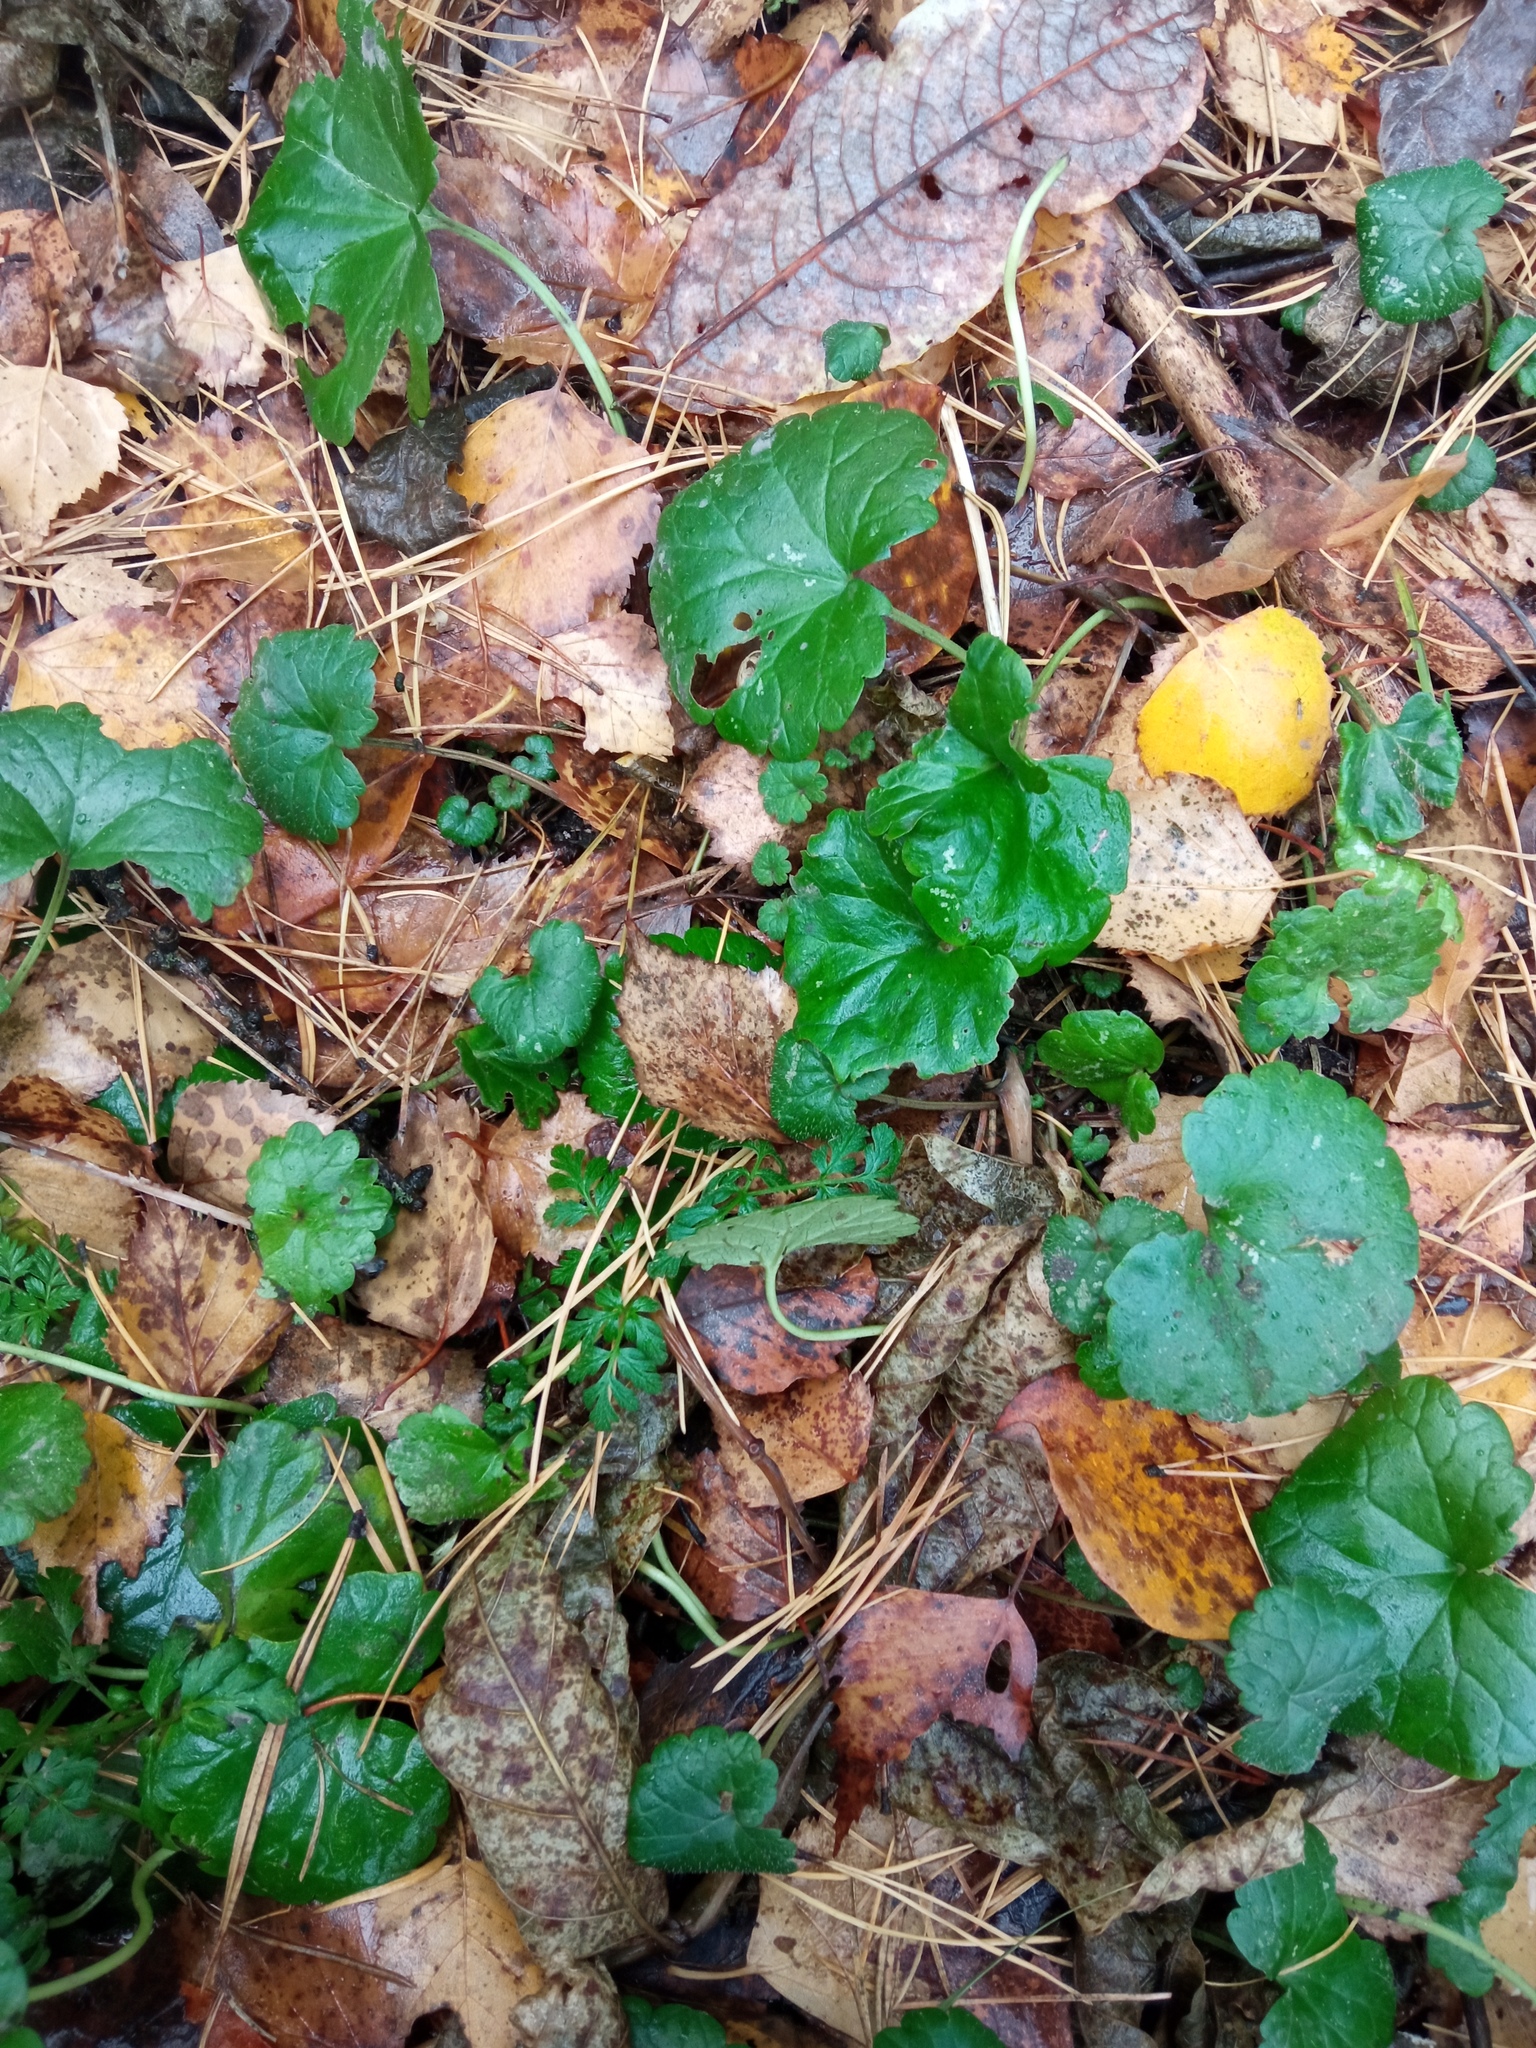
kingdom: Plantae
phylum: Tracheophyta
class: Magnoliopsida
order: Lamiales
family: Lamiaceae
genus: Glechoma
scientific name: Glechoma hederacea
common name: Ground ivy
